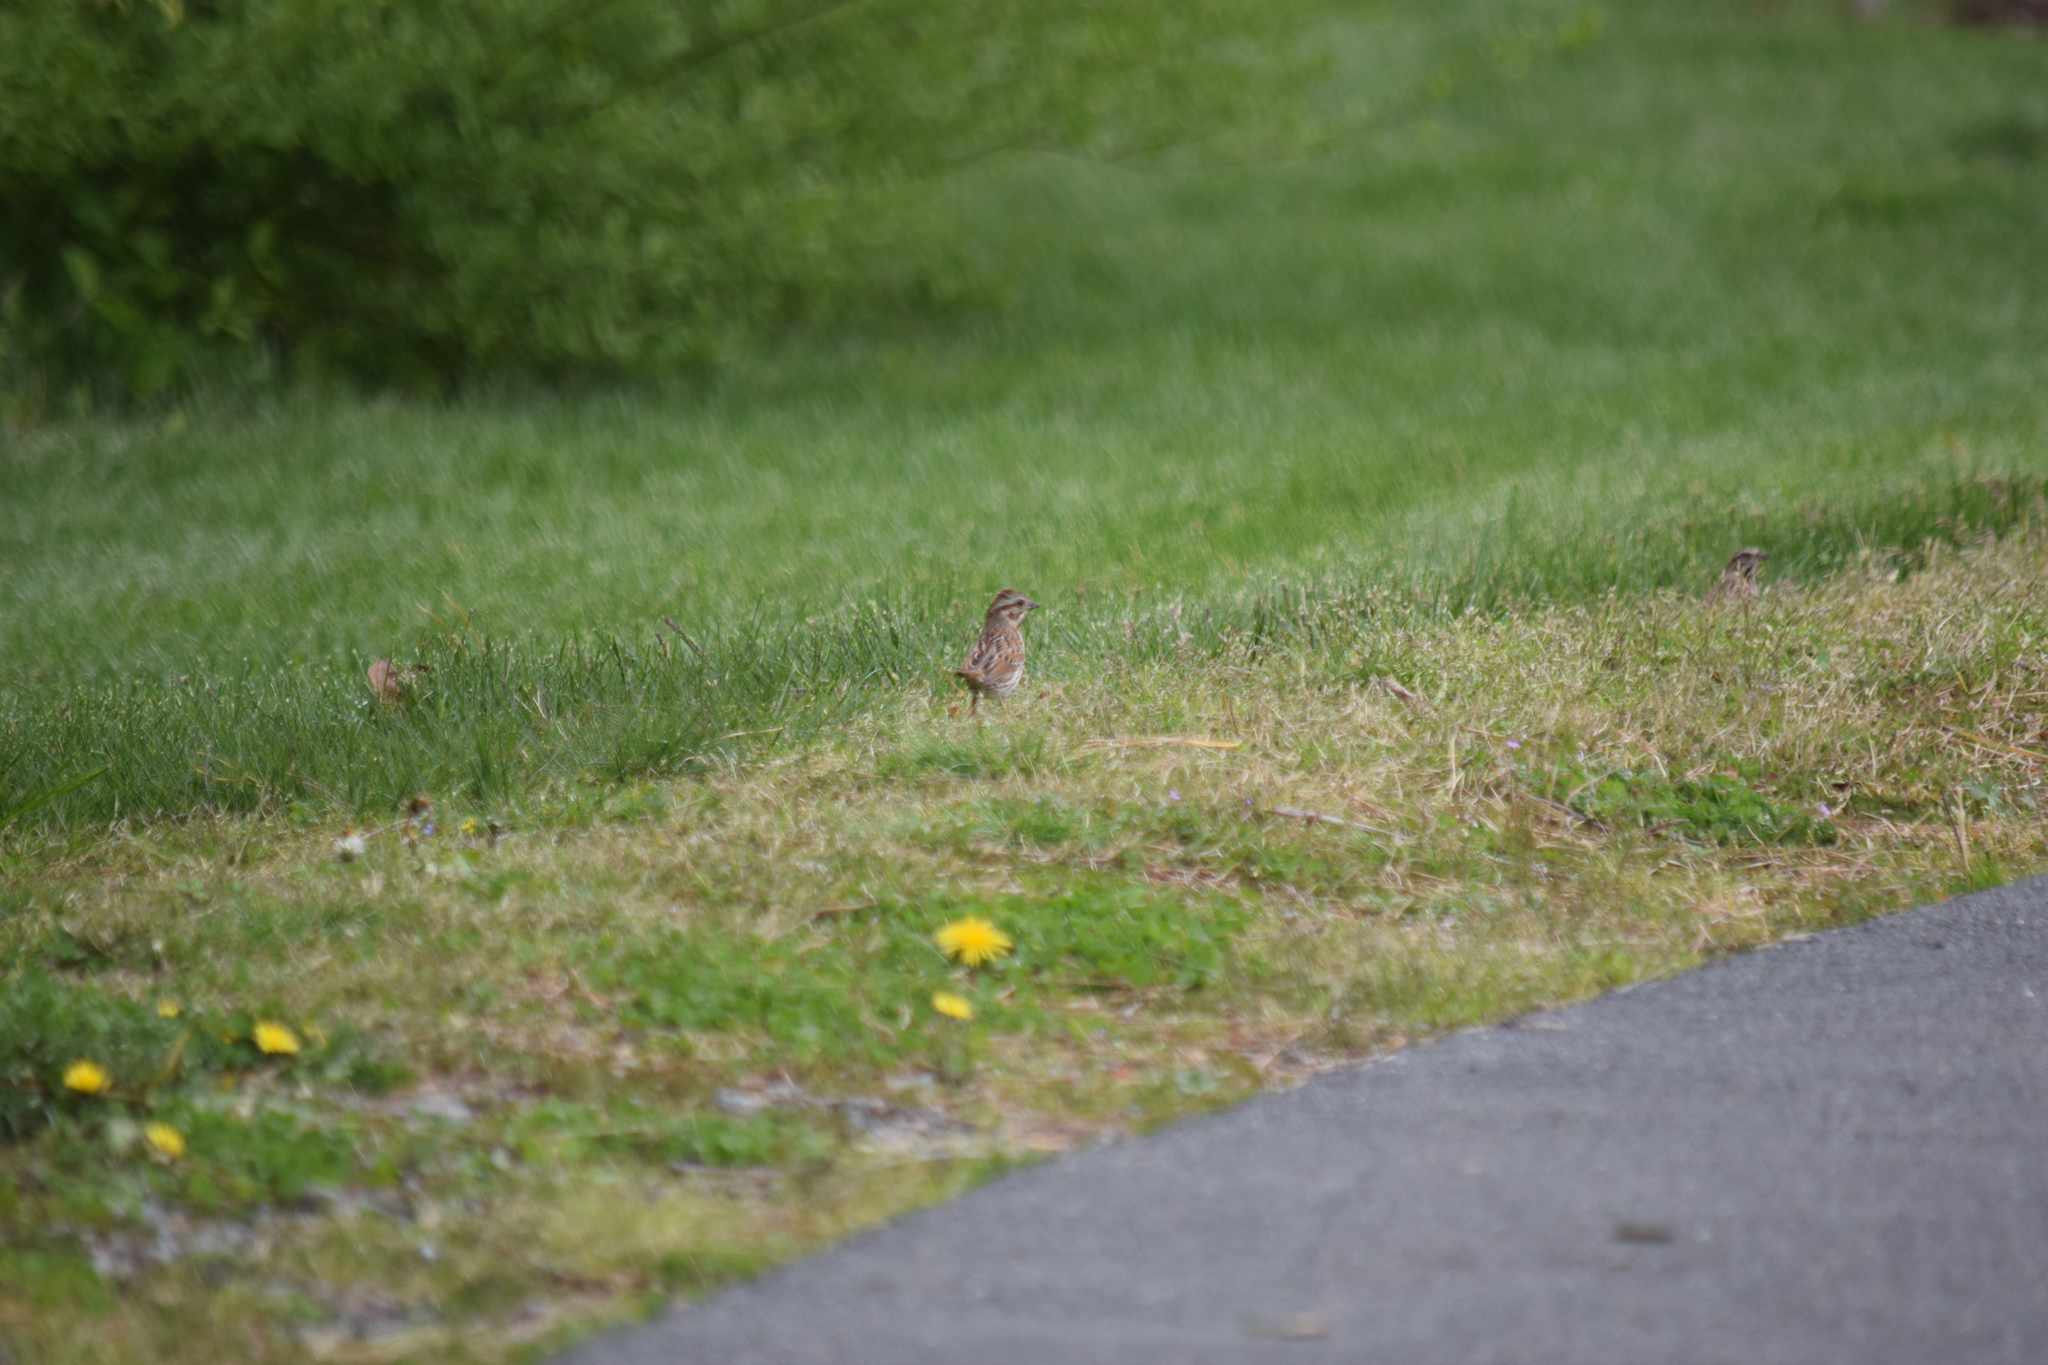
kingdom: Animalia
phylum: Chordata
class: Aves
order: Passeriformes
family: Passerellidae
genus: Melospiza
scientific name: Melospiza melodia
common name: Song sparrow
